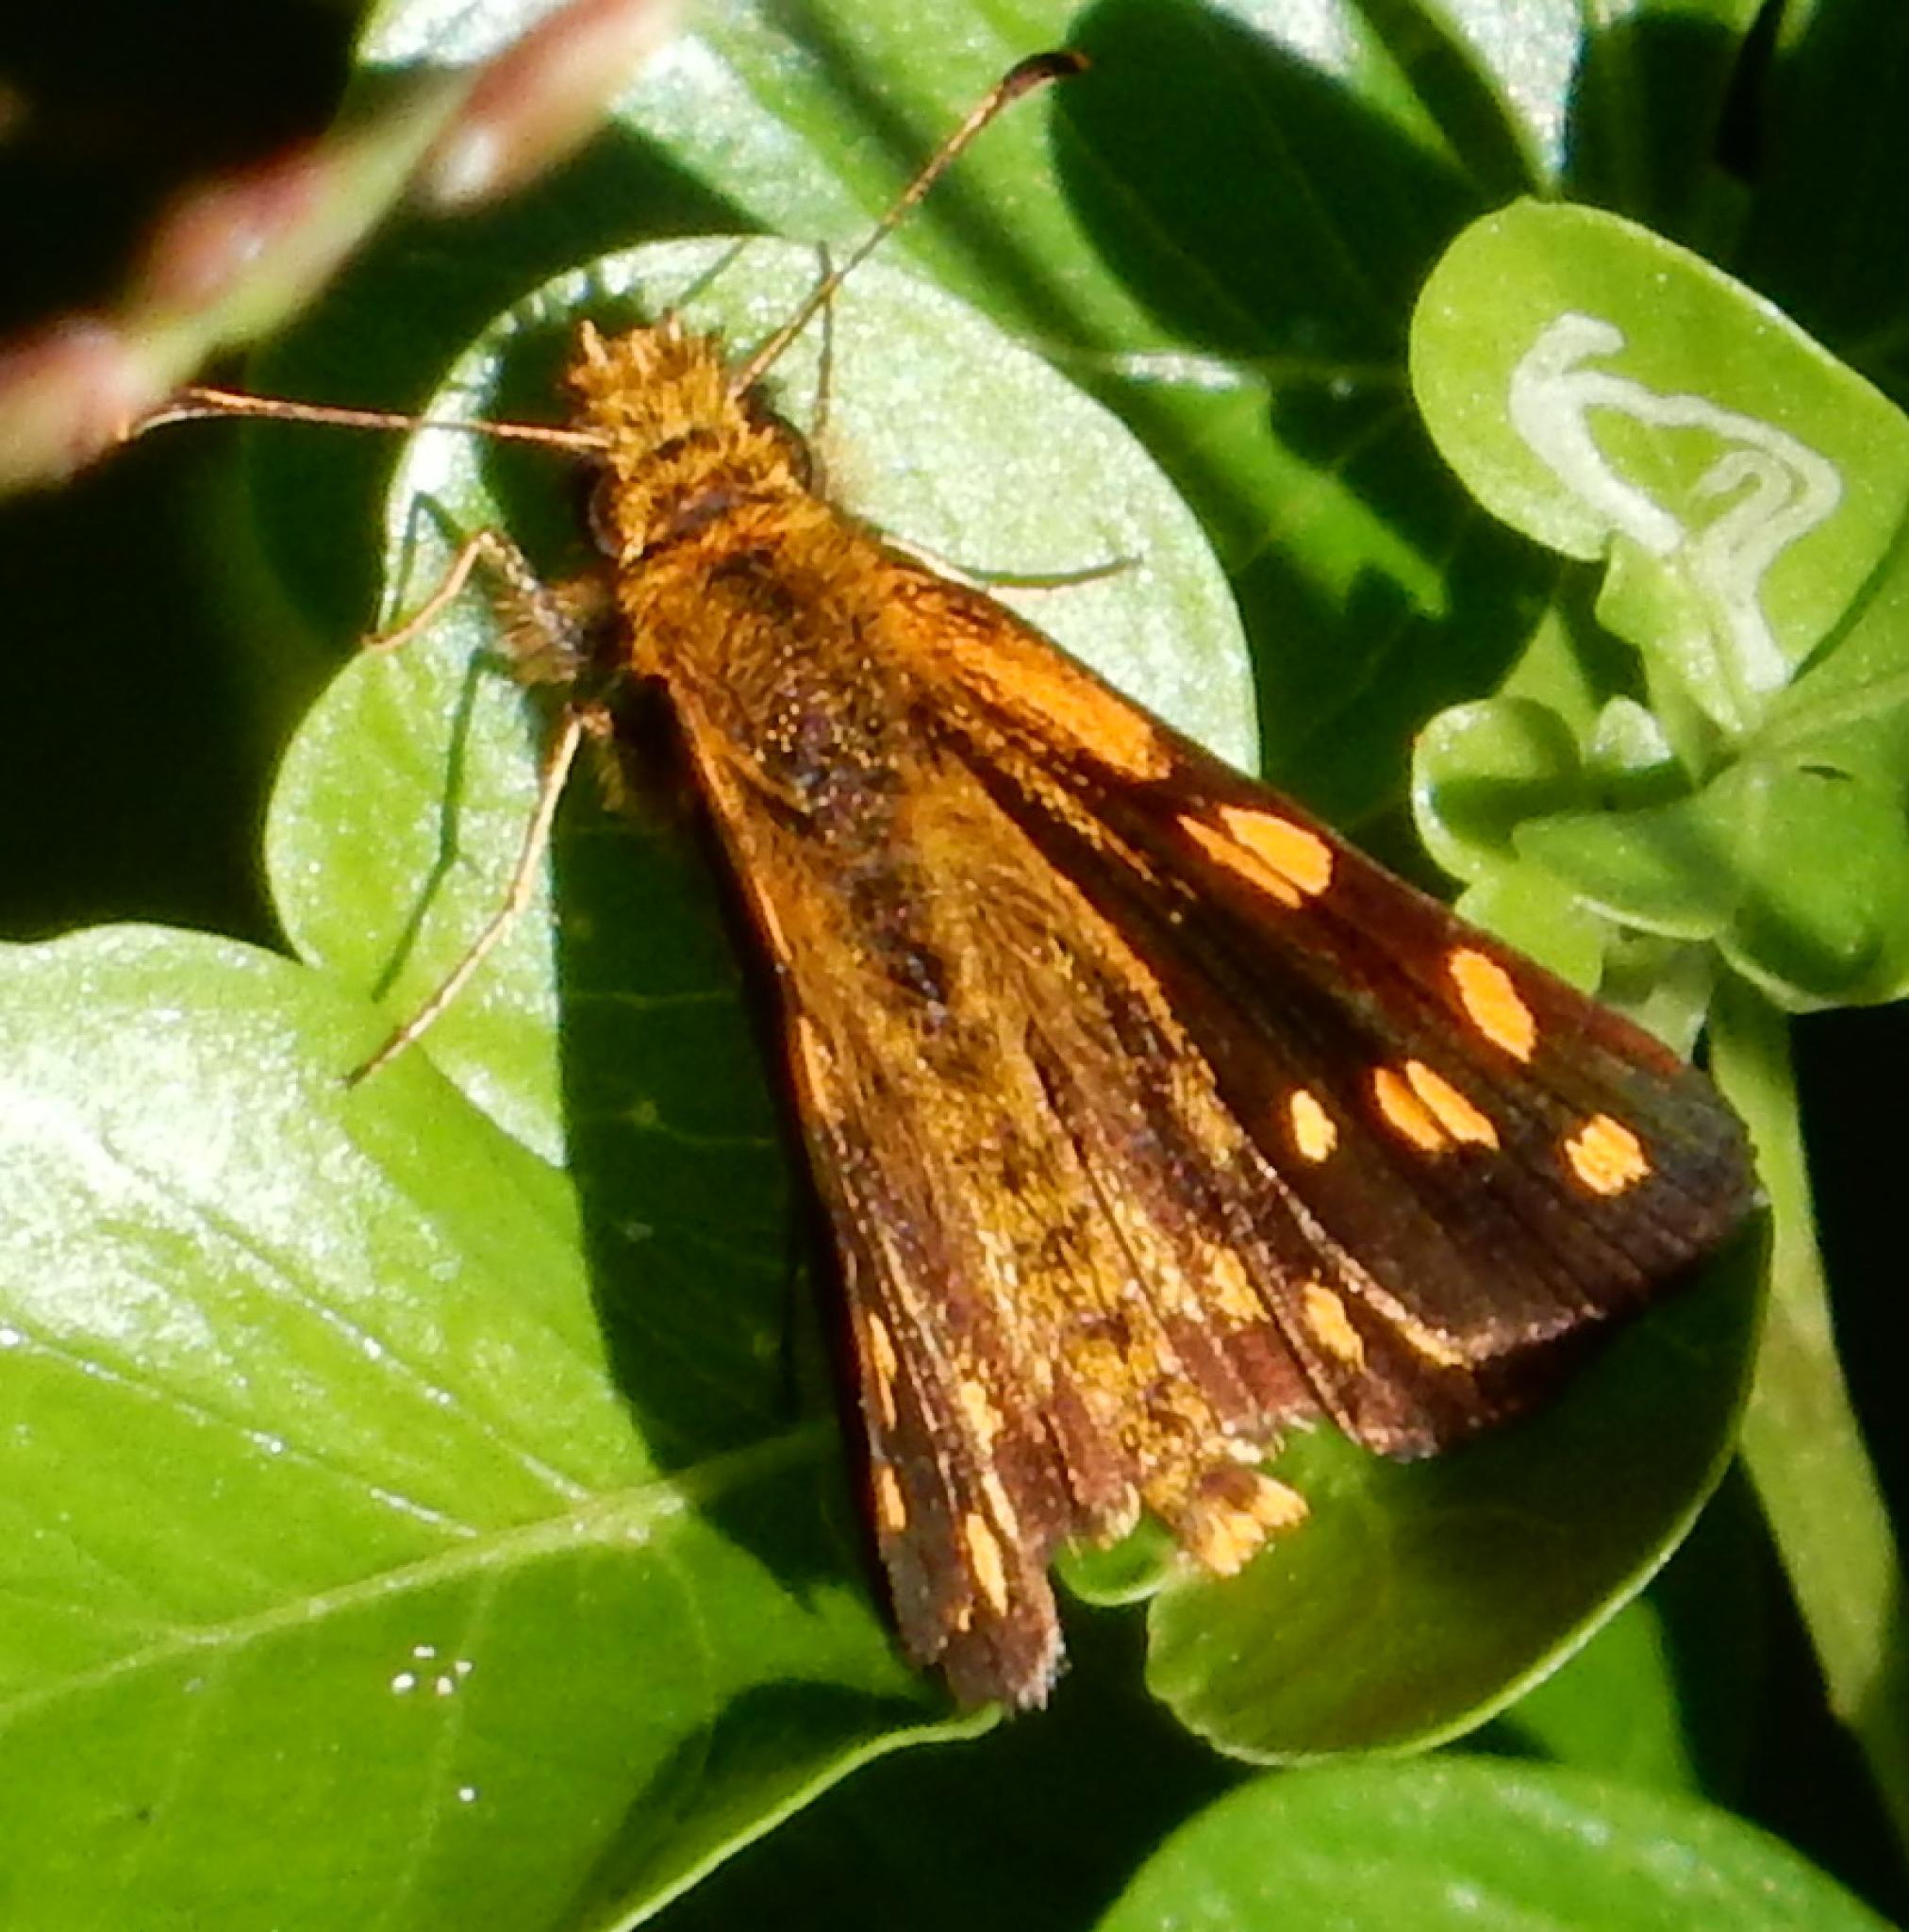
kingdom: Animalia
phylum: Arthropoda
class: Insecta
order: Lepidoptera
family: Hesperiidae
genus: Metisella
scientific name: Metisella metis
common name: Western gold-spotted sylph
